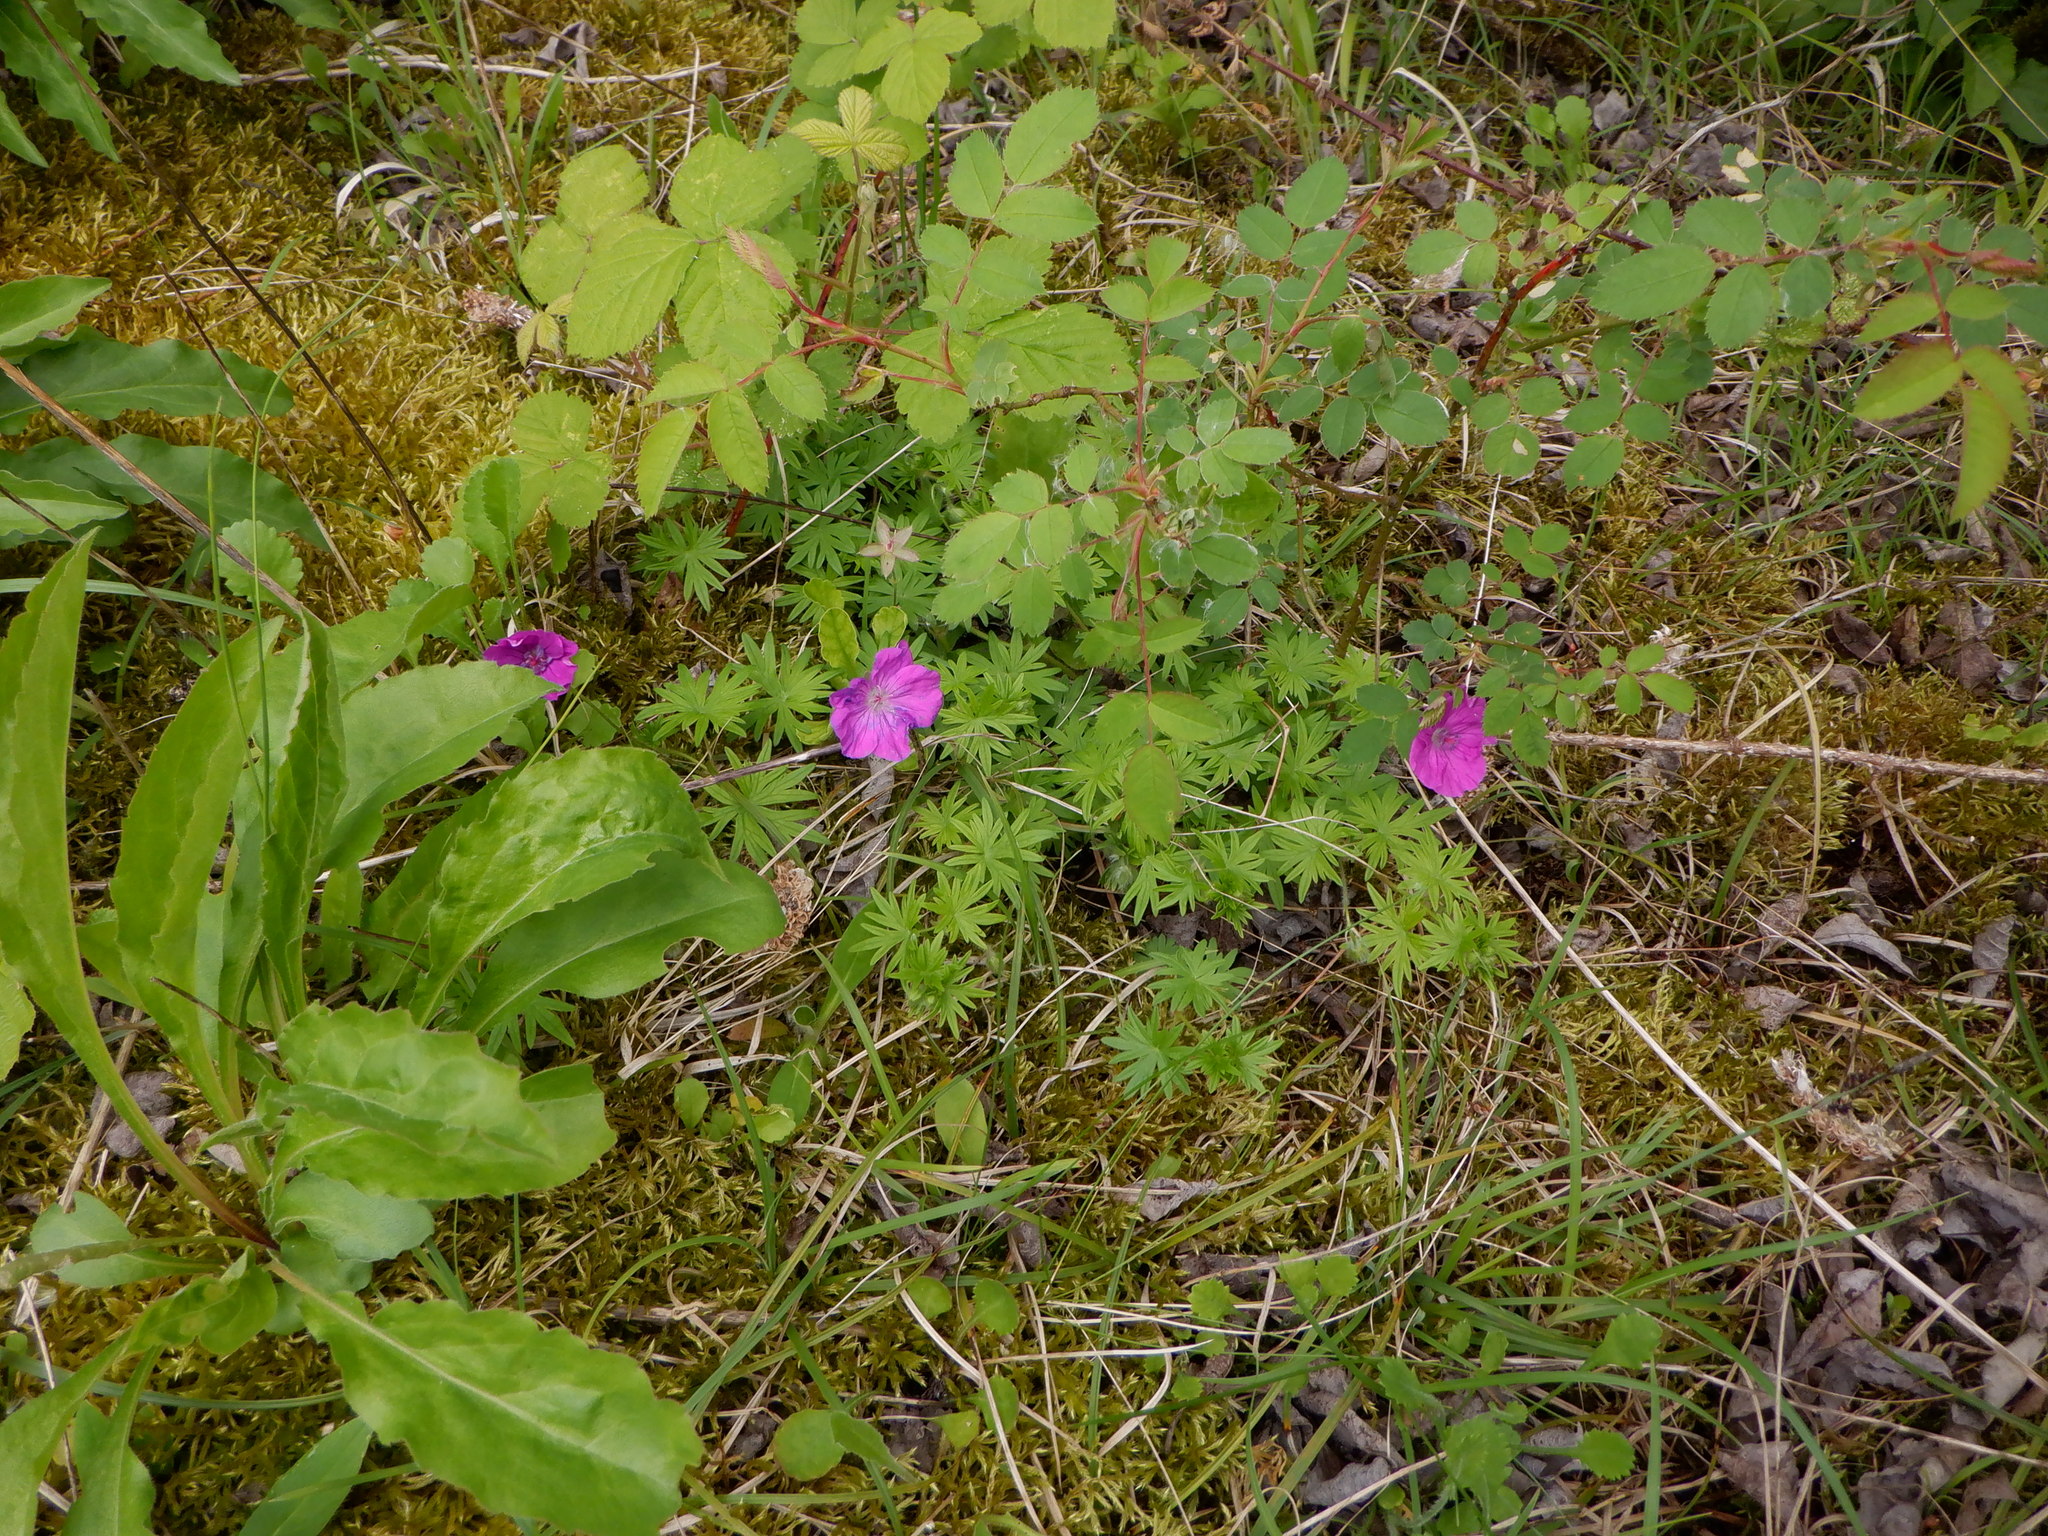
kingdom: Plantae
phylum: Tracheophyta
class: Magnoliopsida
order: Geraniales
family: Geraniaceae
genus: Geranium
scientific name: Geranium sanguineum
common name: Bloody crane's-bill
